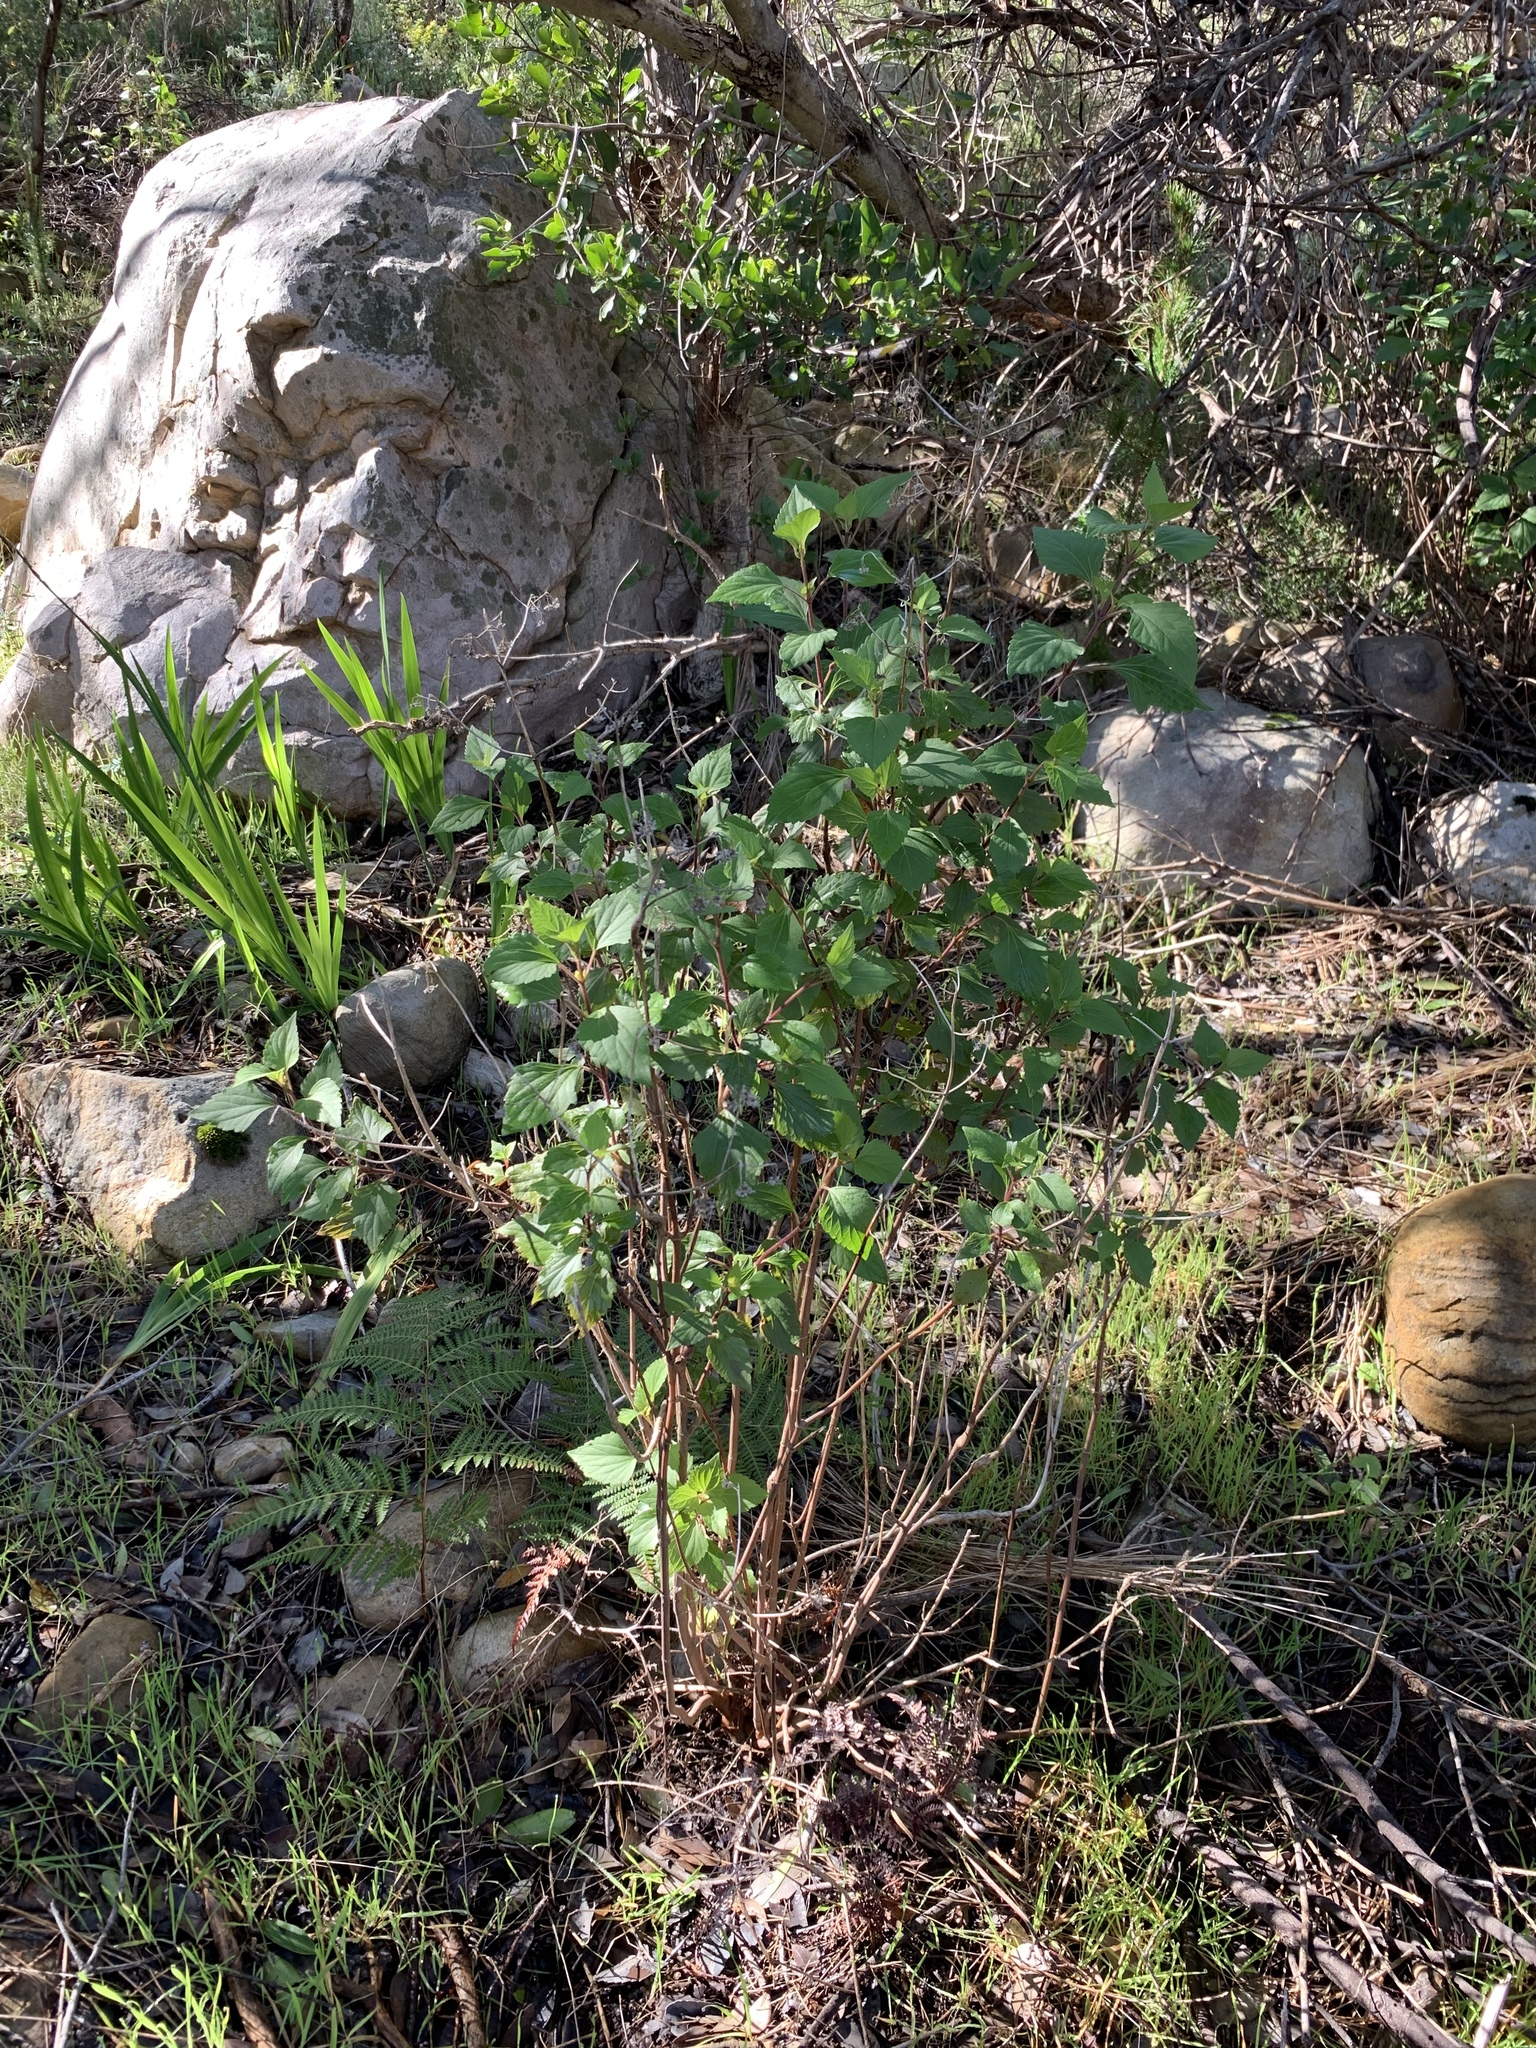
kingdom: Plantae
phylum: Tracheophyta
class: Magnoliopsida
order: Asterales
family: Asteraceae
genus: Ageratina
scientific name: Ageratina adenophora
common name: Sticky snakeroot
